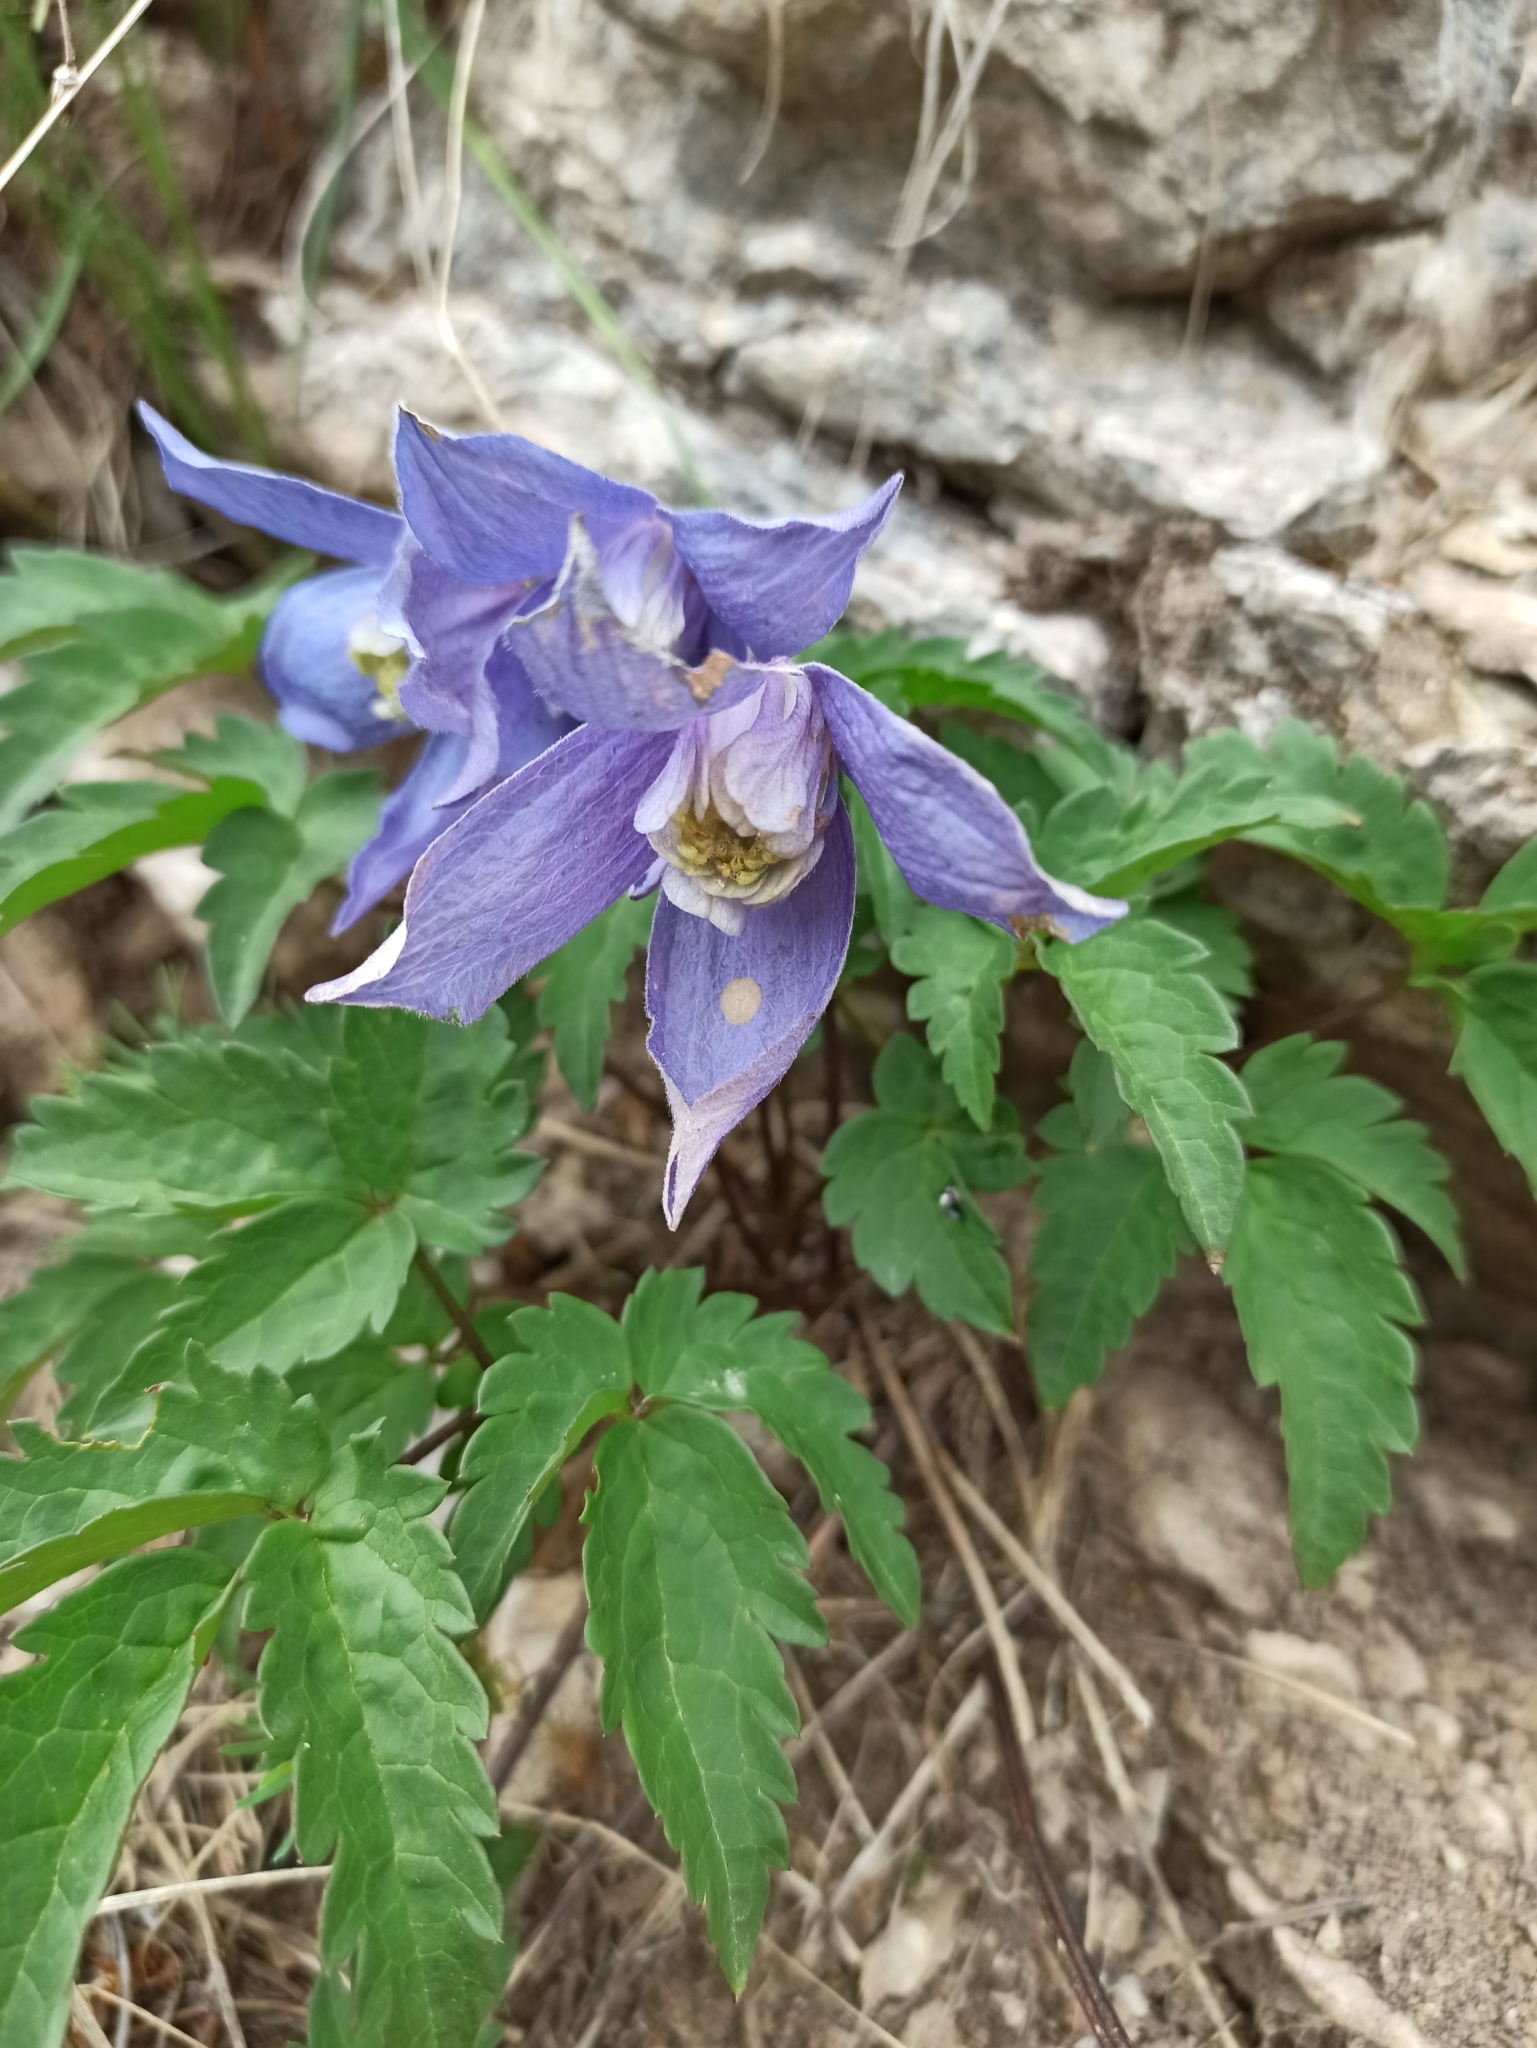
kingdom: Plantae
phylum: Tracheophyta
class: Magnoliopsida
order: Ranunculales
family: Ranunculaceae
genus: Clematis
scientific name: Clematis alpina
